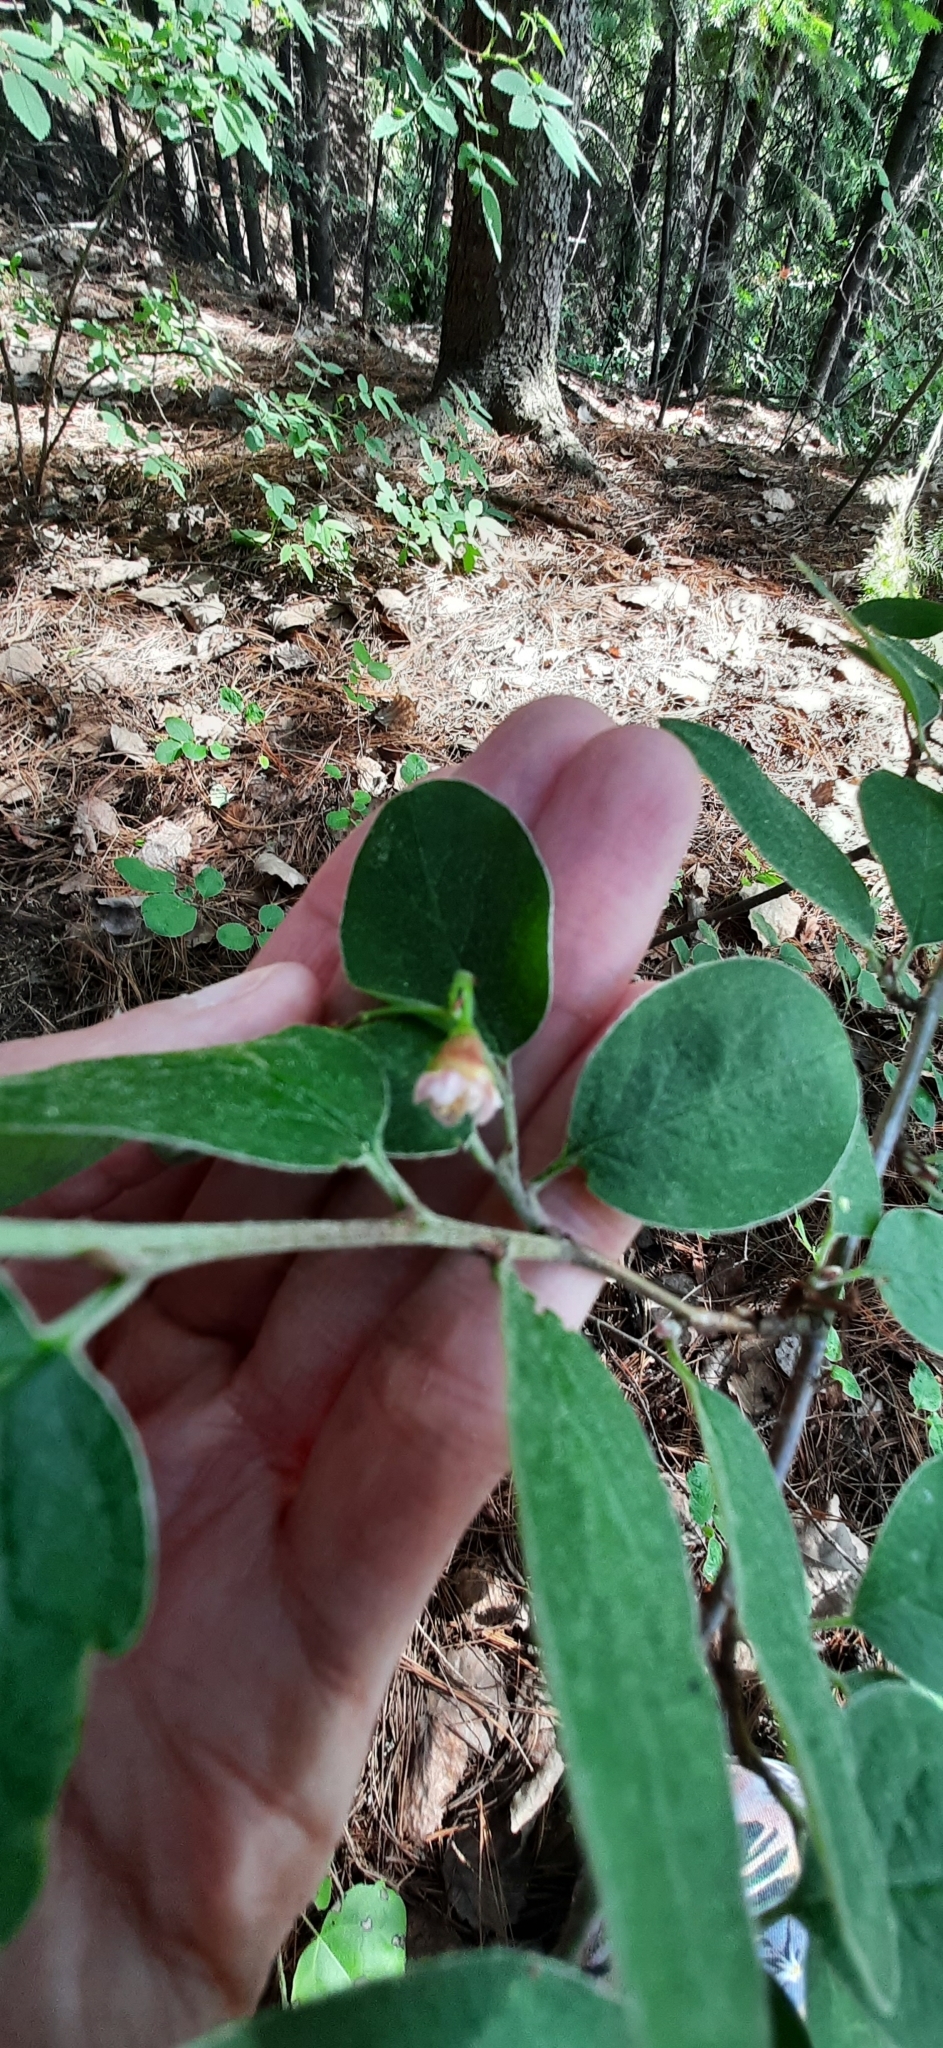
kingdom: Plantae
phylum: Tracheophyta
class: Magnoliopsida
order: Rosales
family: Rosaceae
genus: Cotoneaster
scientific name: Cotoneaster melanocarpus
